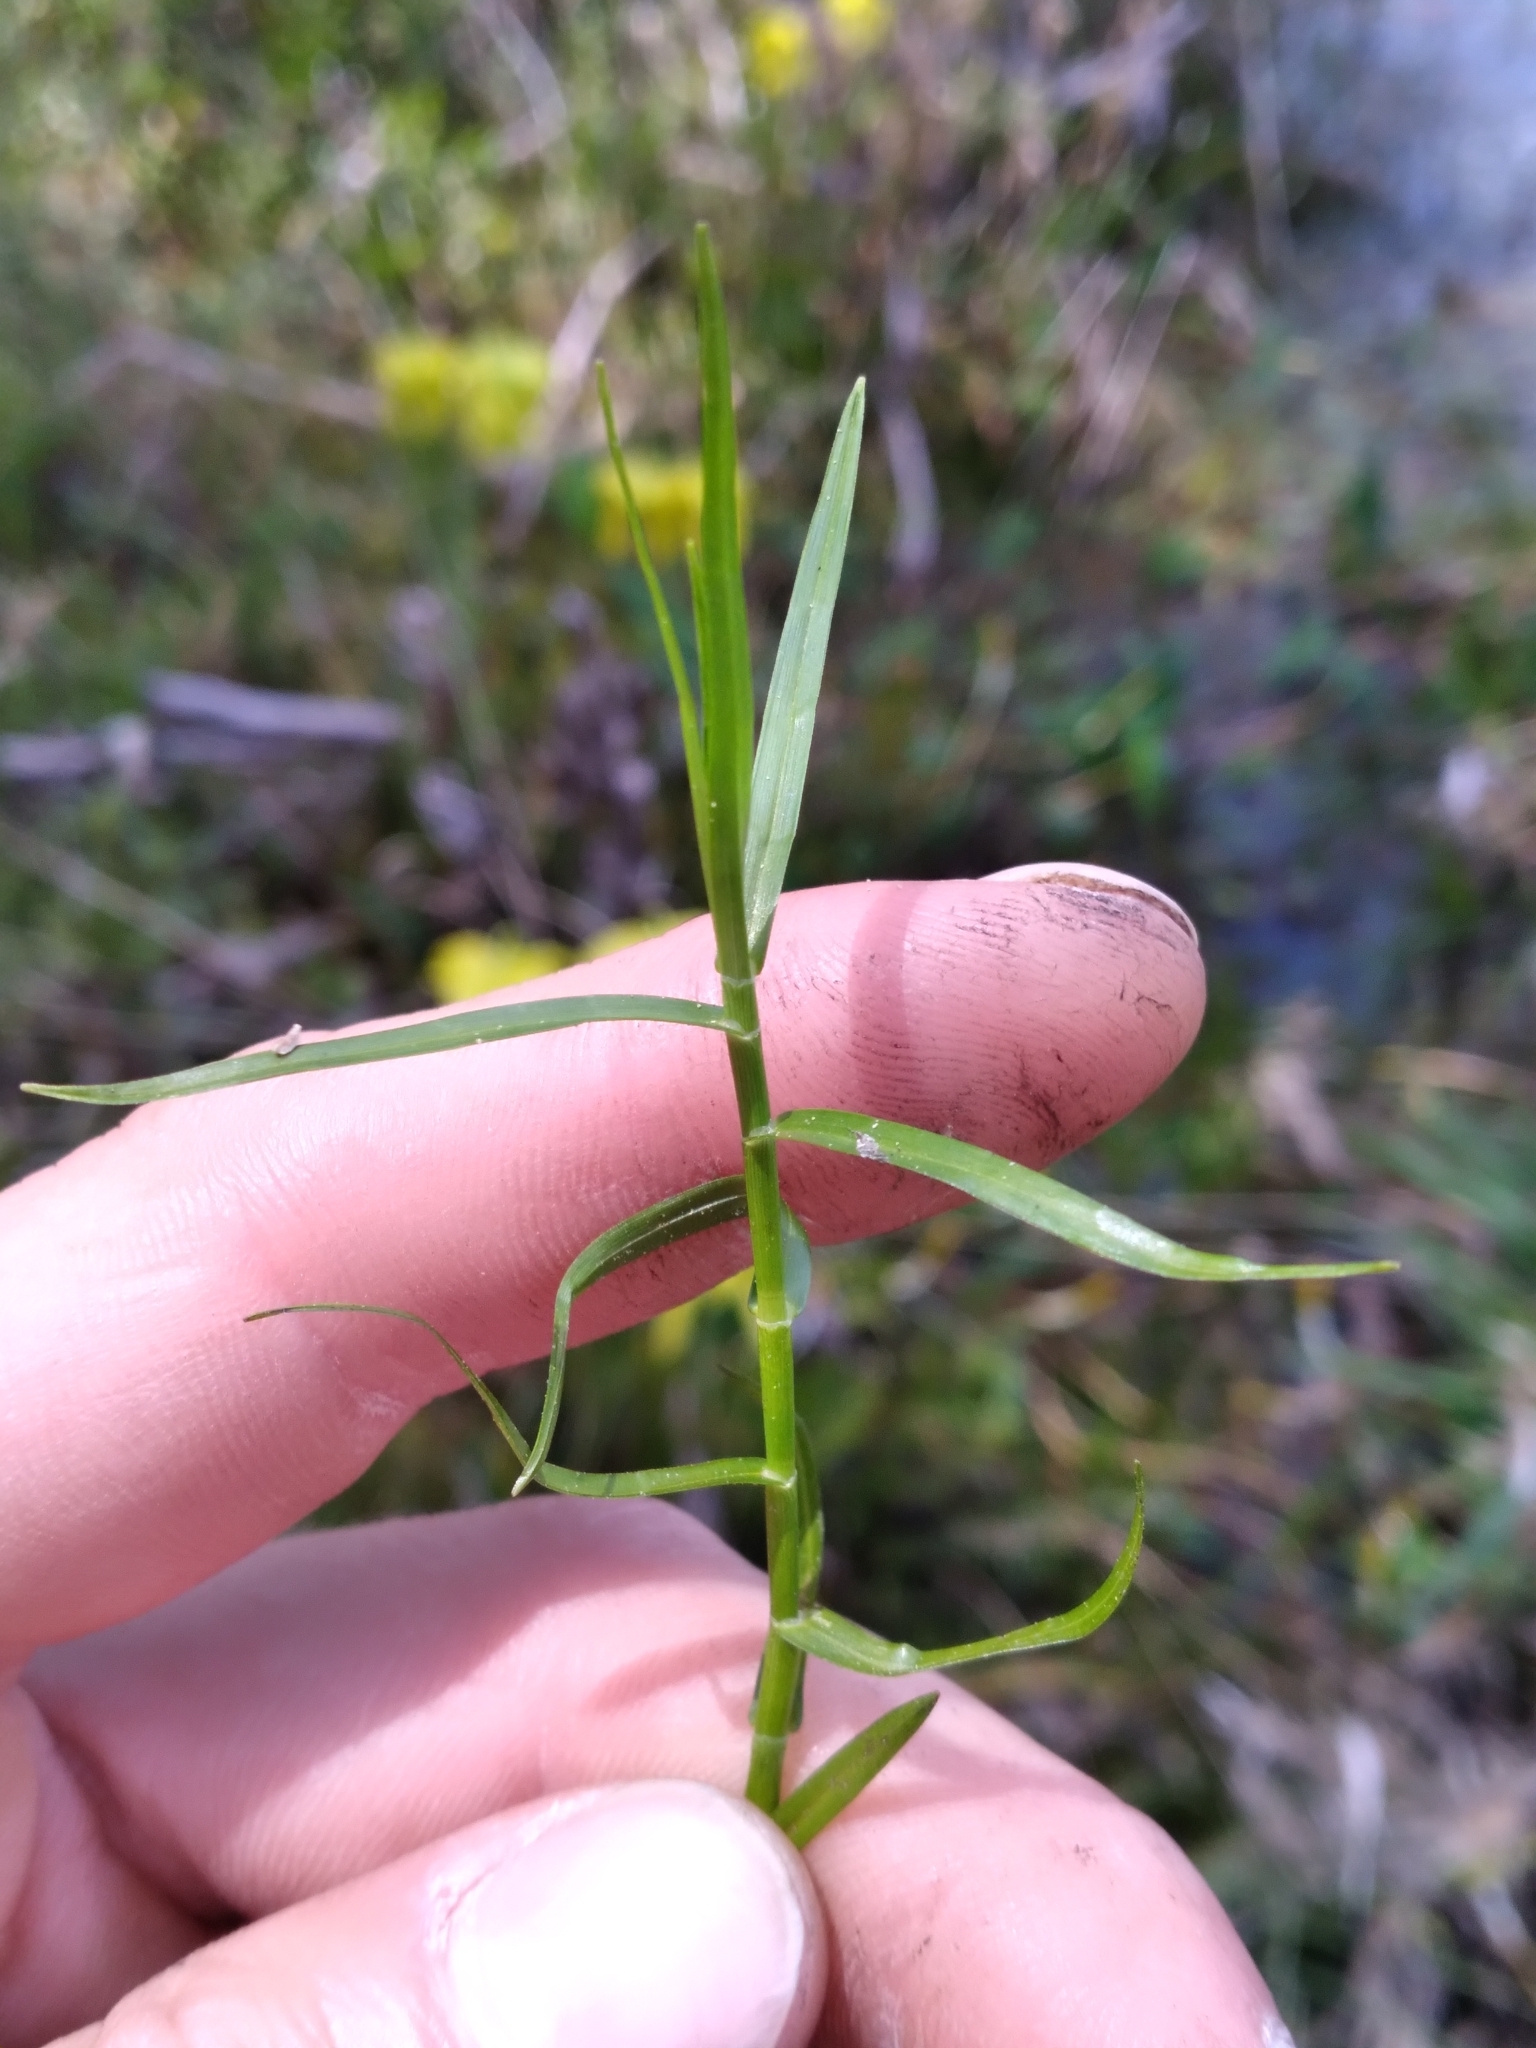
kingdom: Plantae
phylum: Tracheophyta
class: Liliopsida
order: Poales
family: Cyperaceae
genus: Dulichium
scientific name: Dulichium arundinaceum
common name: Three-way sedge
